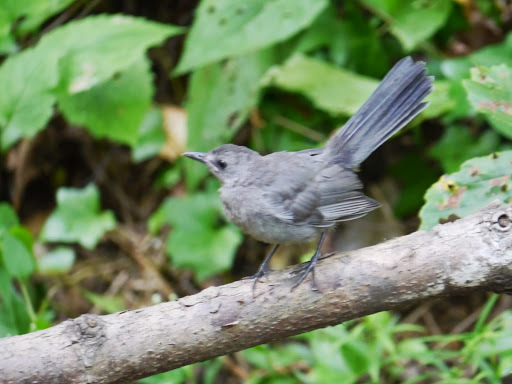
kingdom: Animalia
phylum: Chordata
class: Aves
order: Passeriformes
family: Mimidae
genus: Dumetella
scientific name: Dumetella carolinensis
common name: Gray catbird
